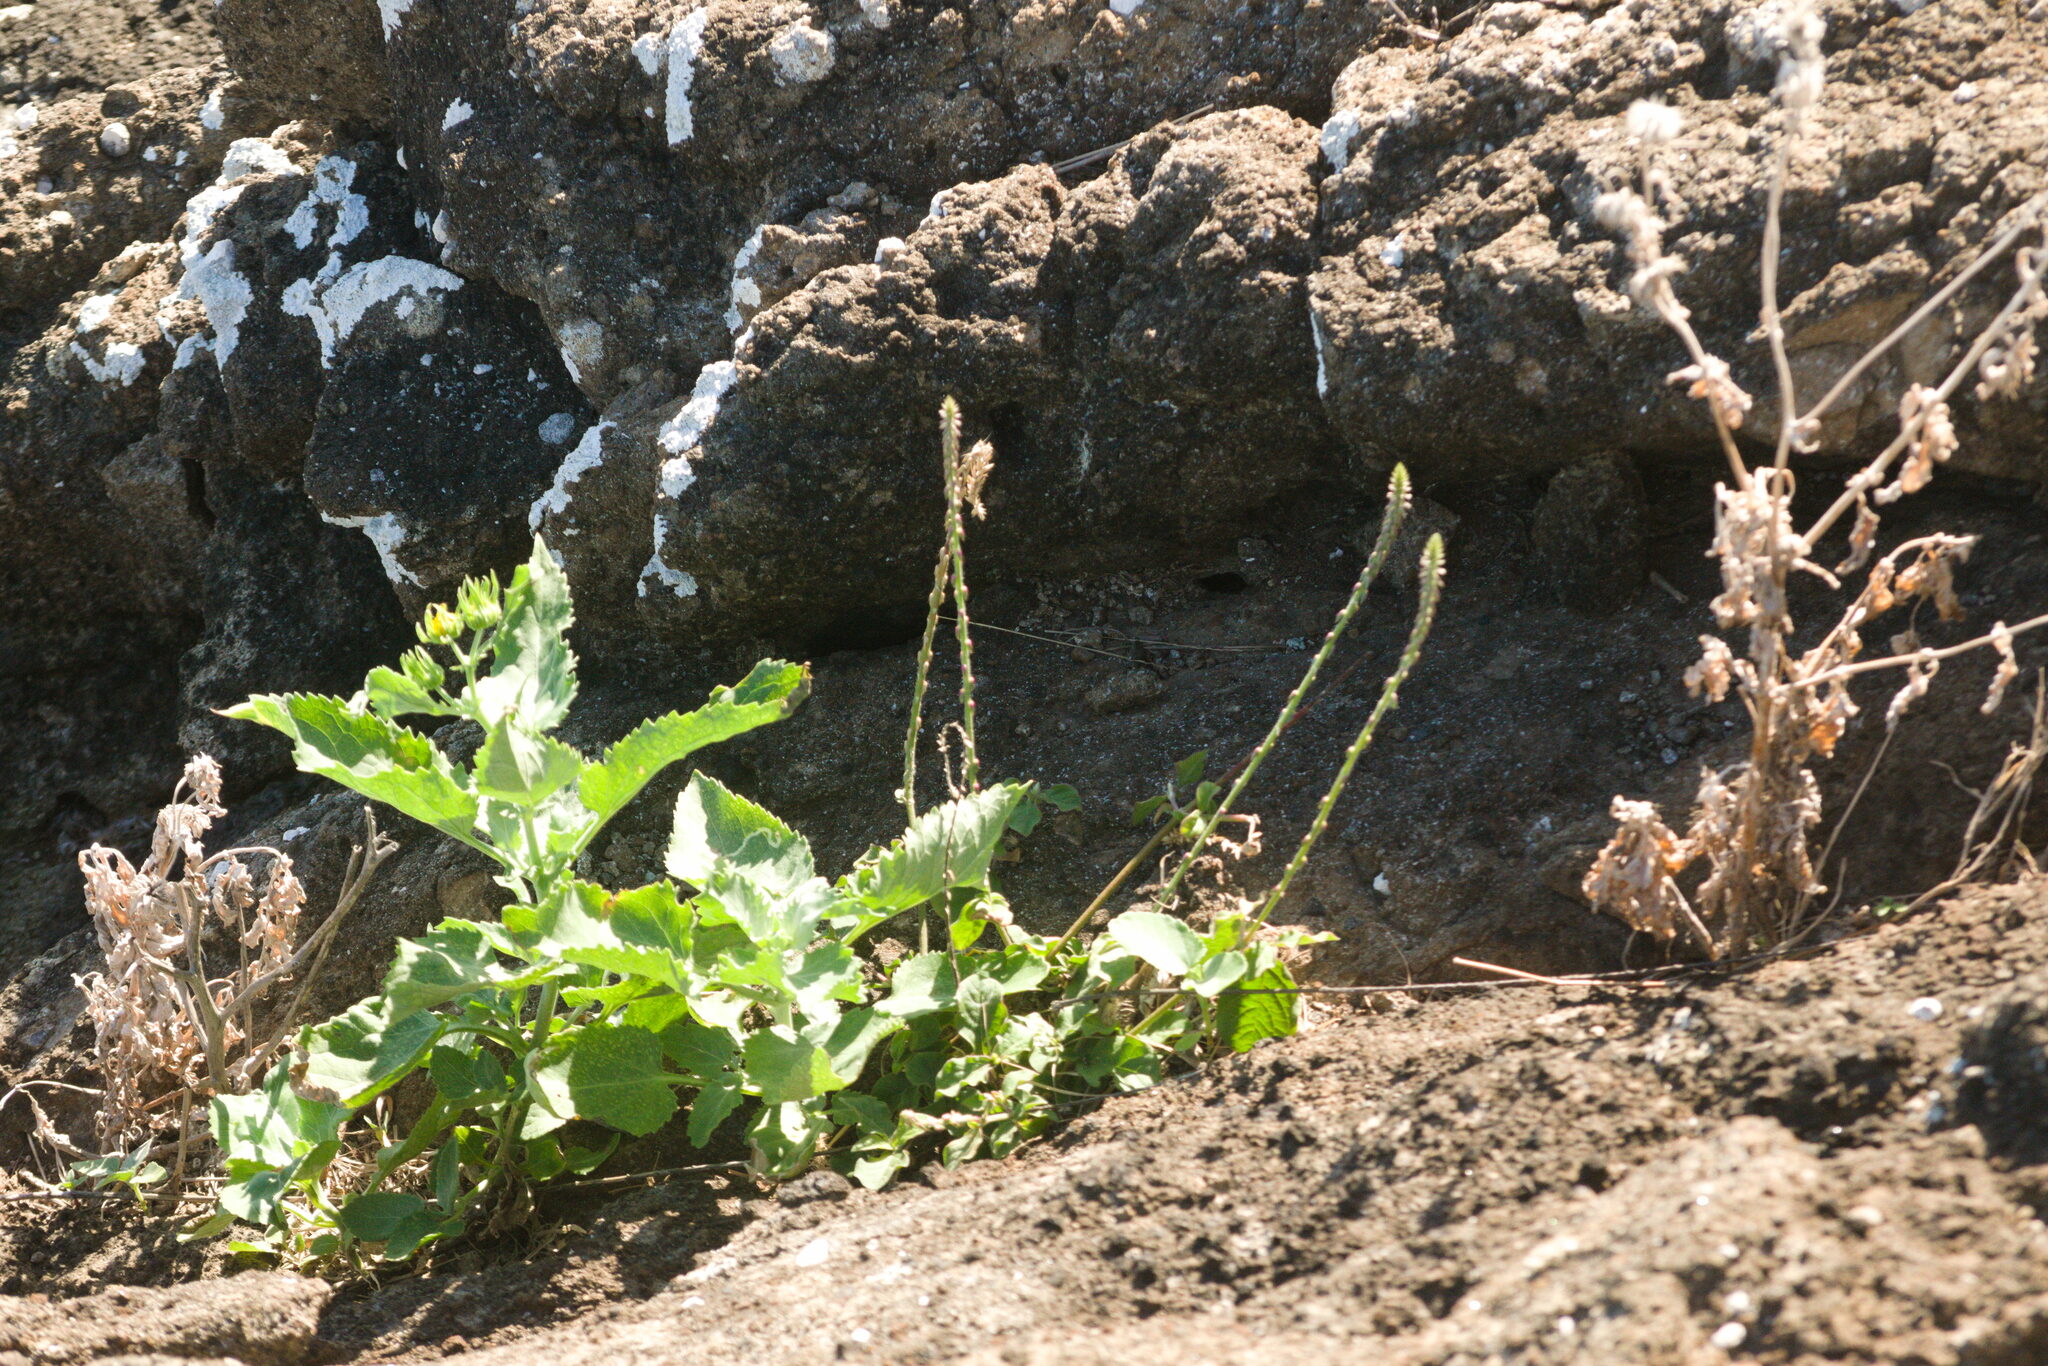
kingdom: Plantae
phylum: Tracheophyta
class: Magnoliopsida
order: Caryophyllales
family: Amaranthaceae
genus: Achyranthes
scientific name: Achyranthes aspera
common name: Devil's horsewhip
